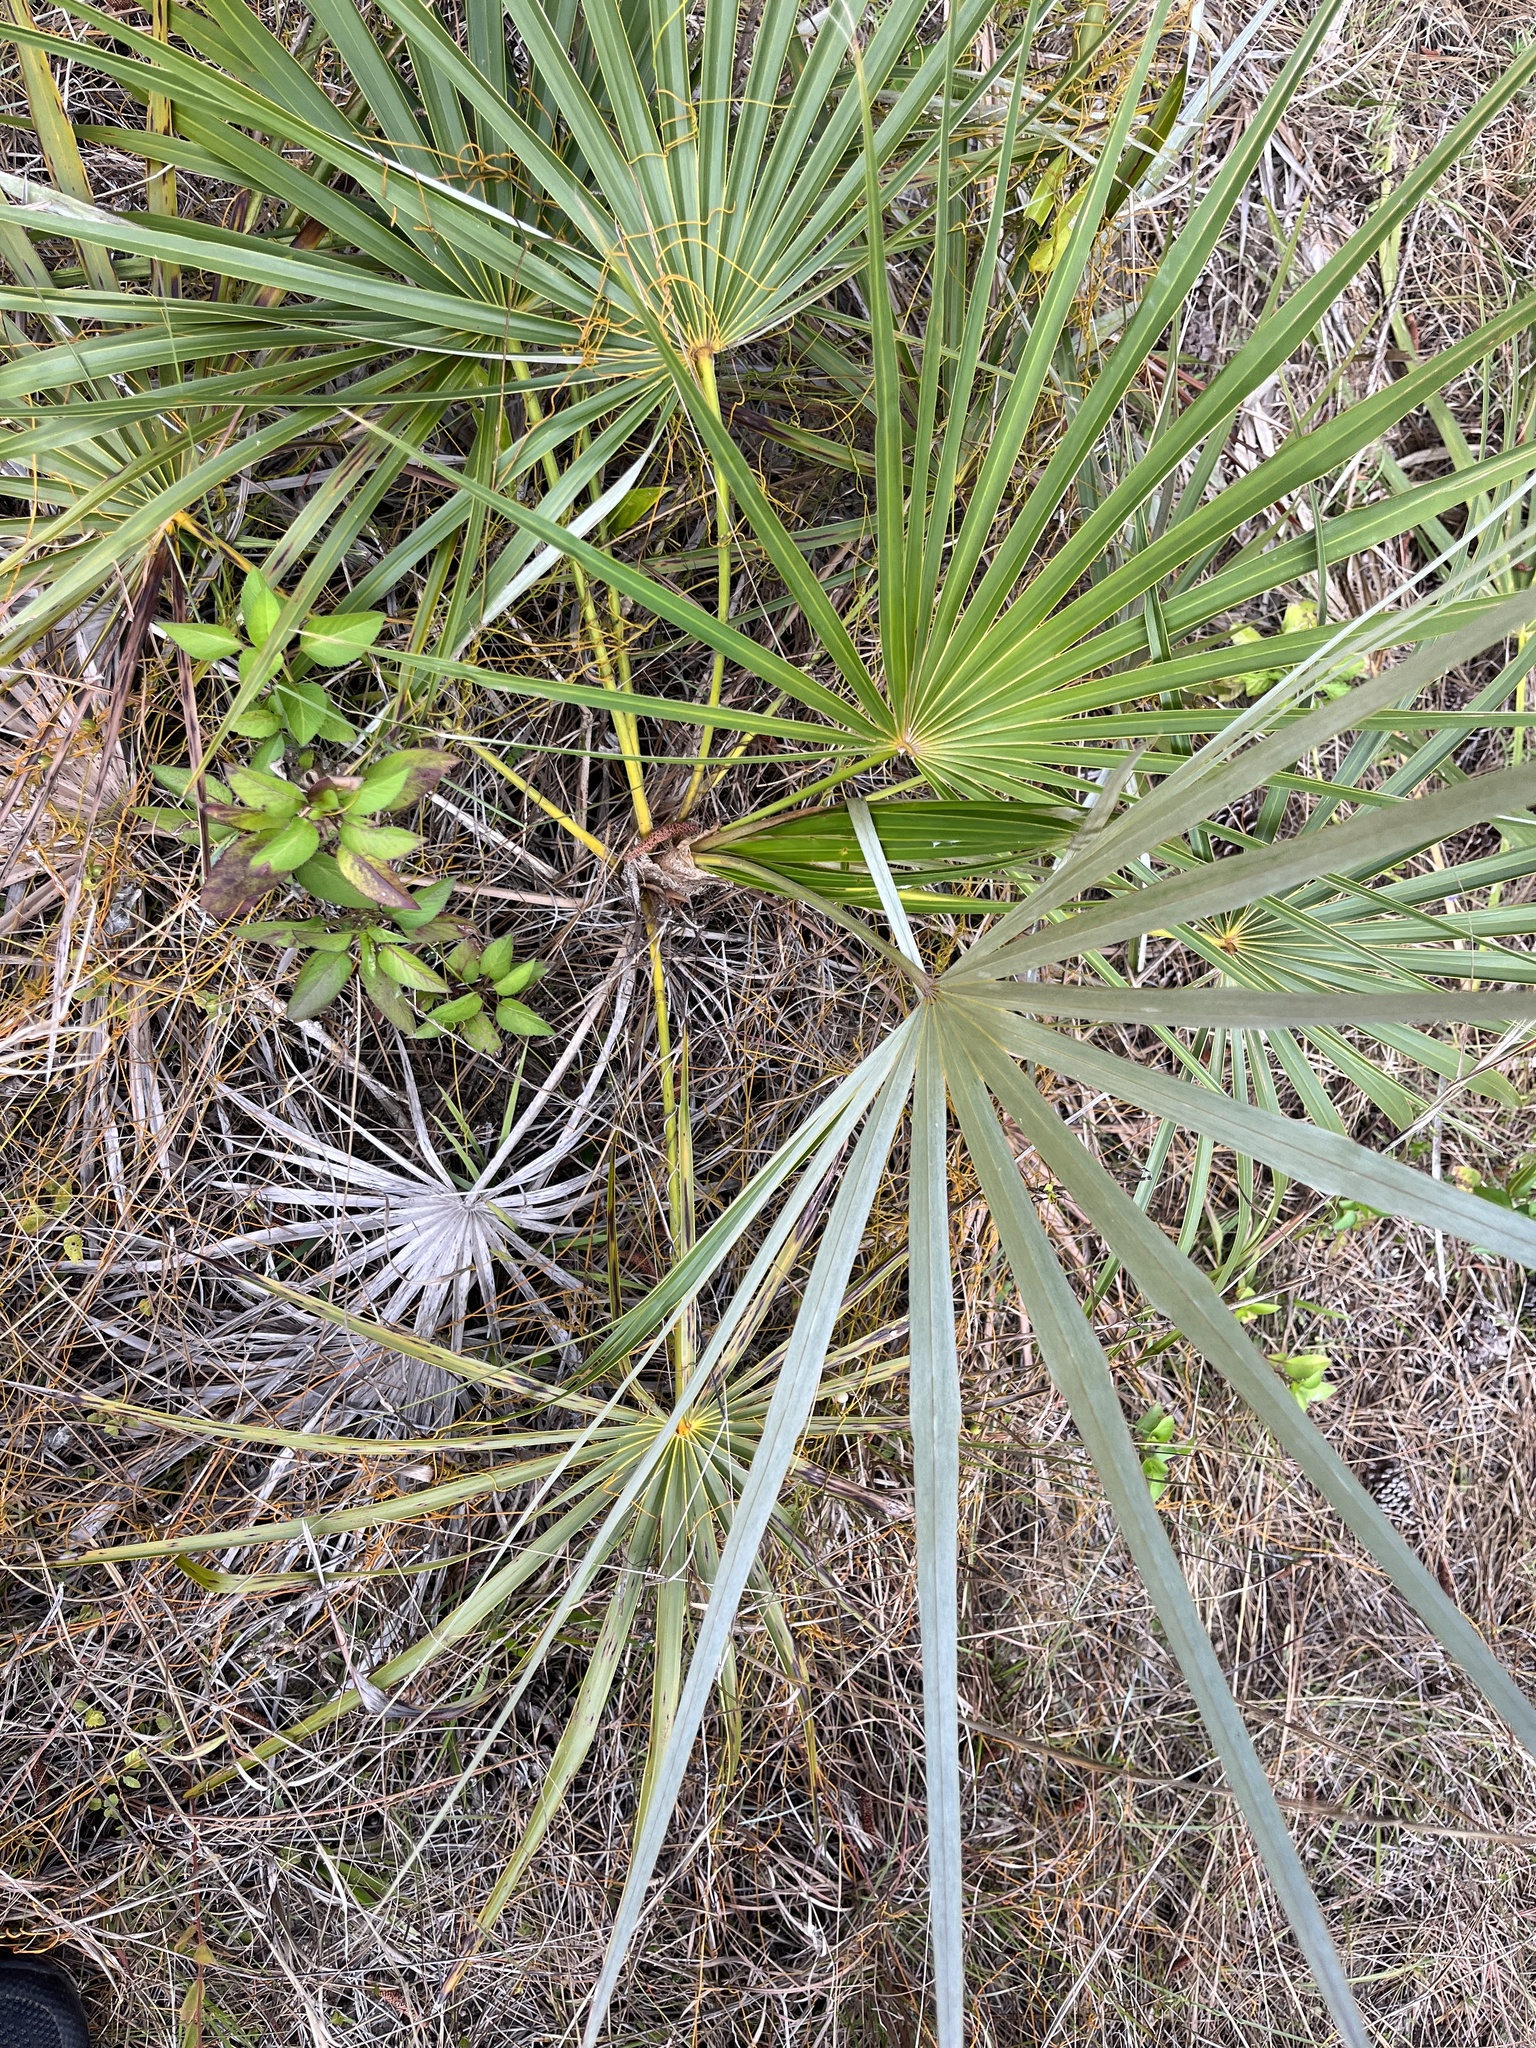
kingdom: Plantae
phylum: Tracheophyta
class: Liliopsida
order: Arecales
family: Arecaceae
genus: Coccothrinax
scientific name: Coccothrinax argentata
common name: Florida silver palm
